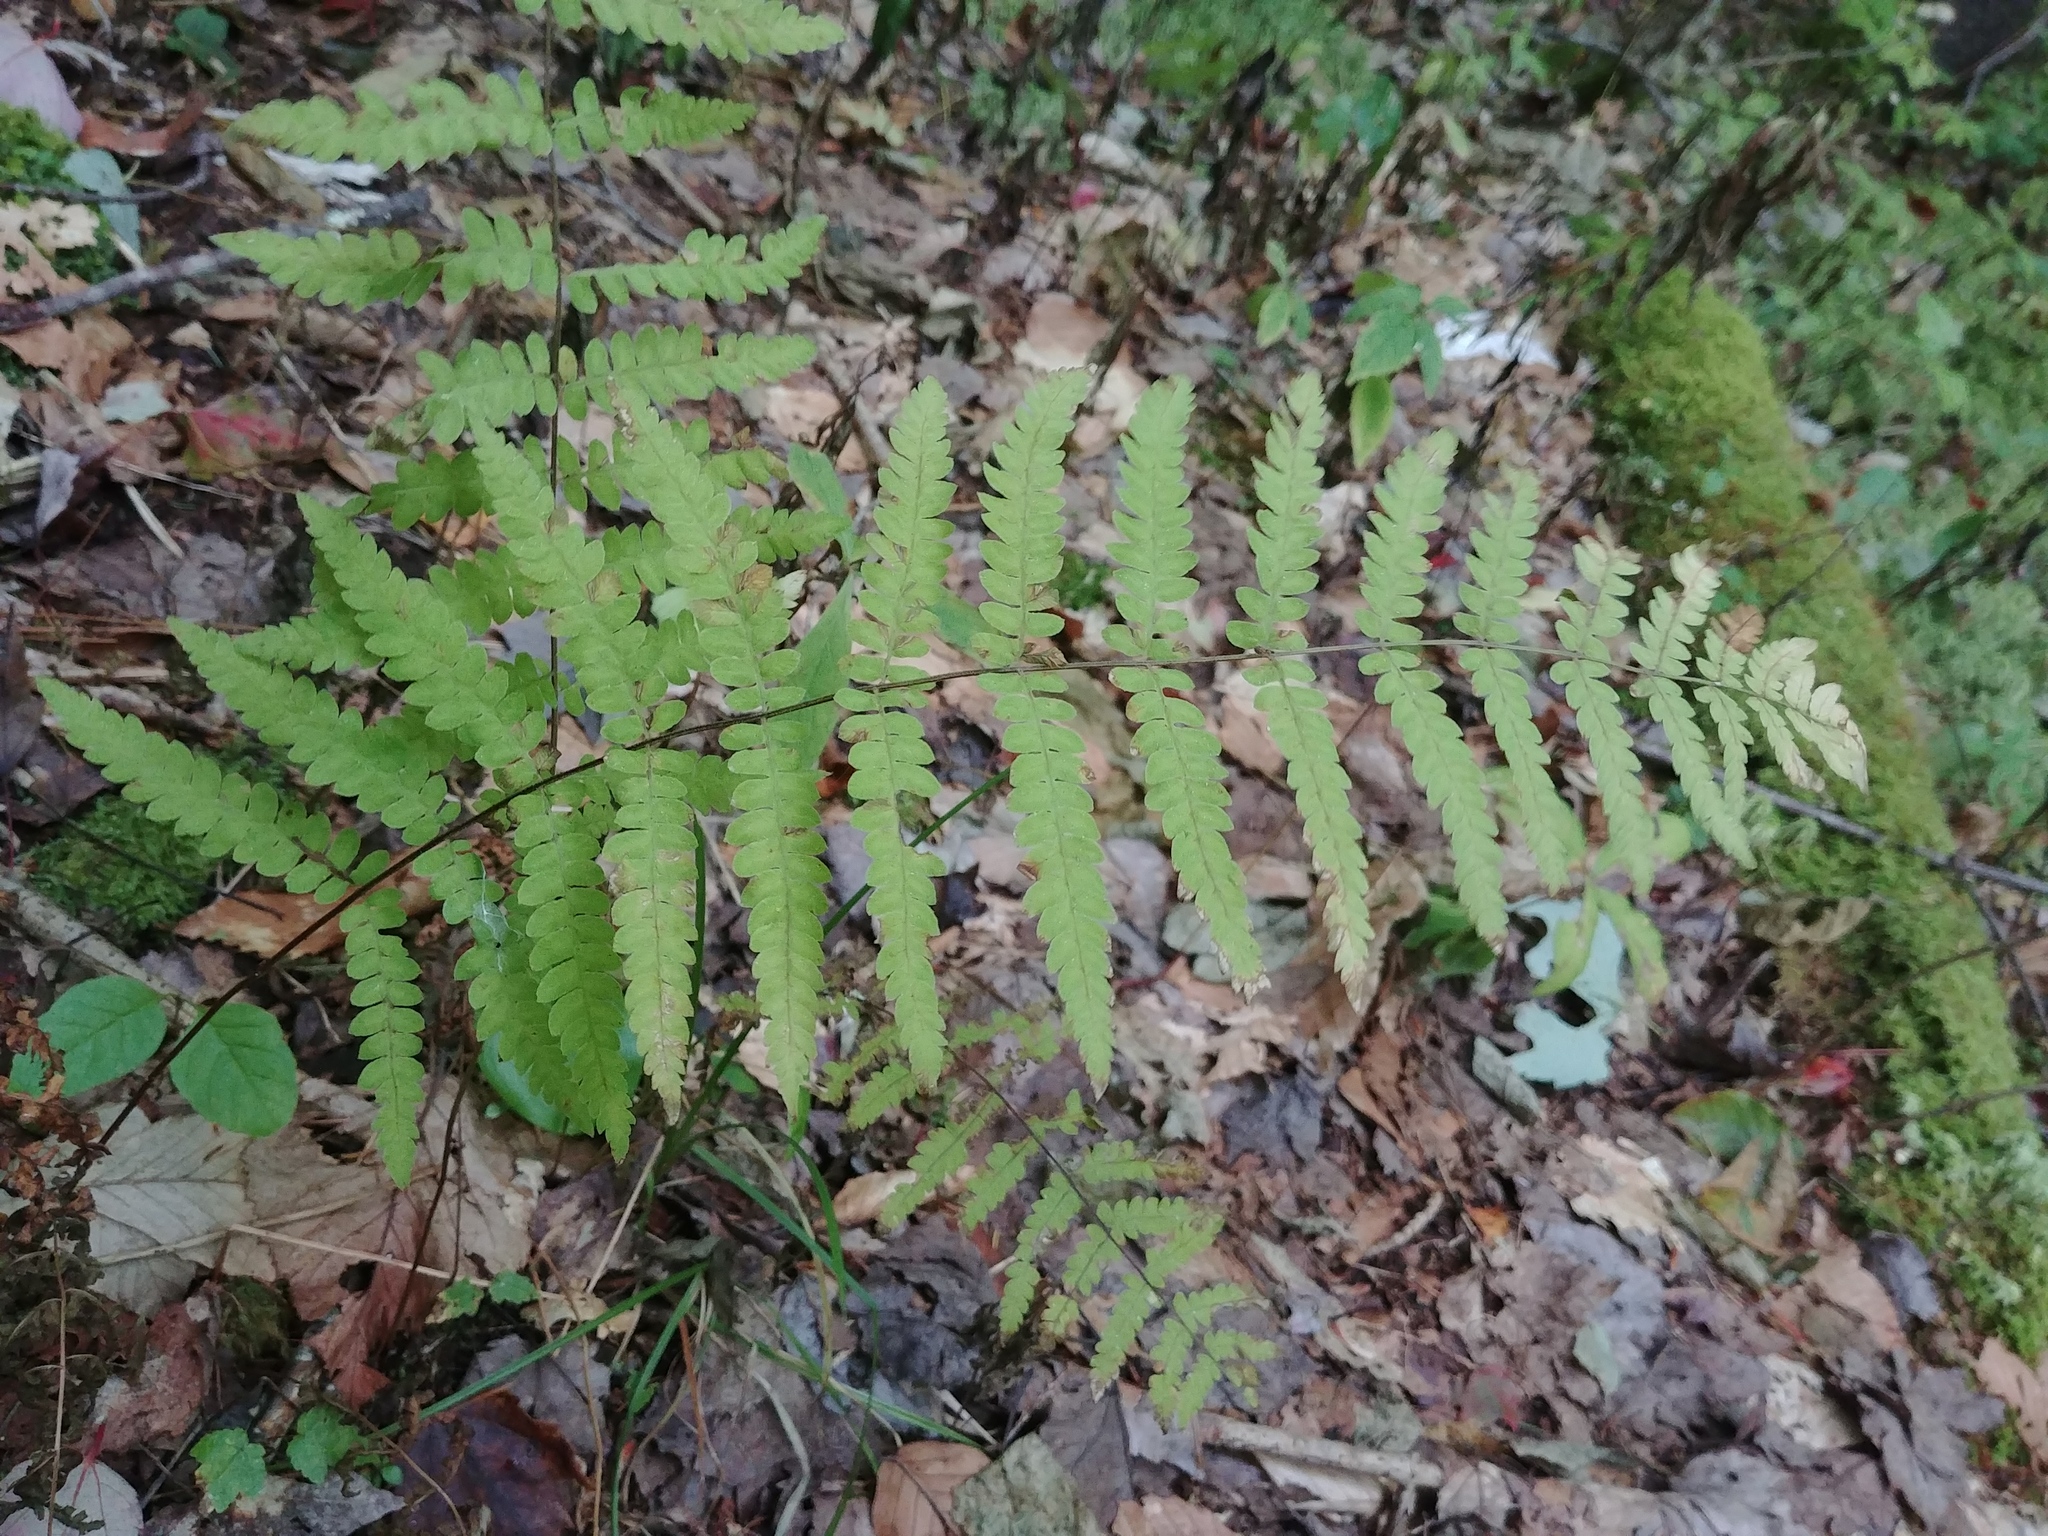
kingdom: Plantae
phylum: Tracheophyta
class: Polypodiopsida
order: Polypodiales
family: Thelypteridaceae
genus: Thelypteris
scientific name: Thelypteris palustris
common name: Marsh fern
